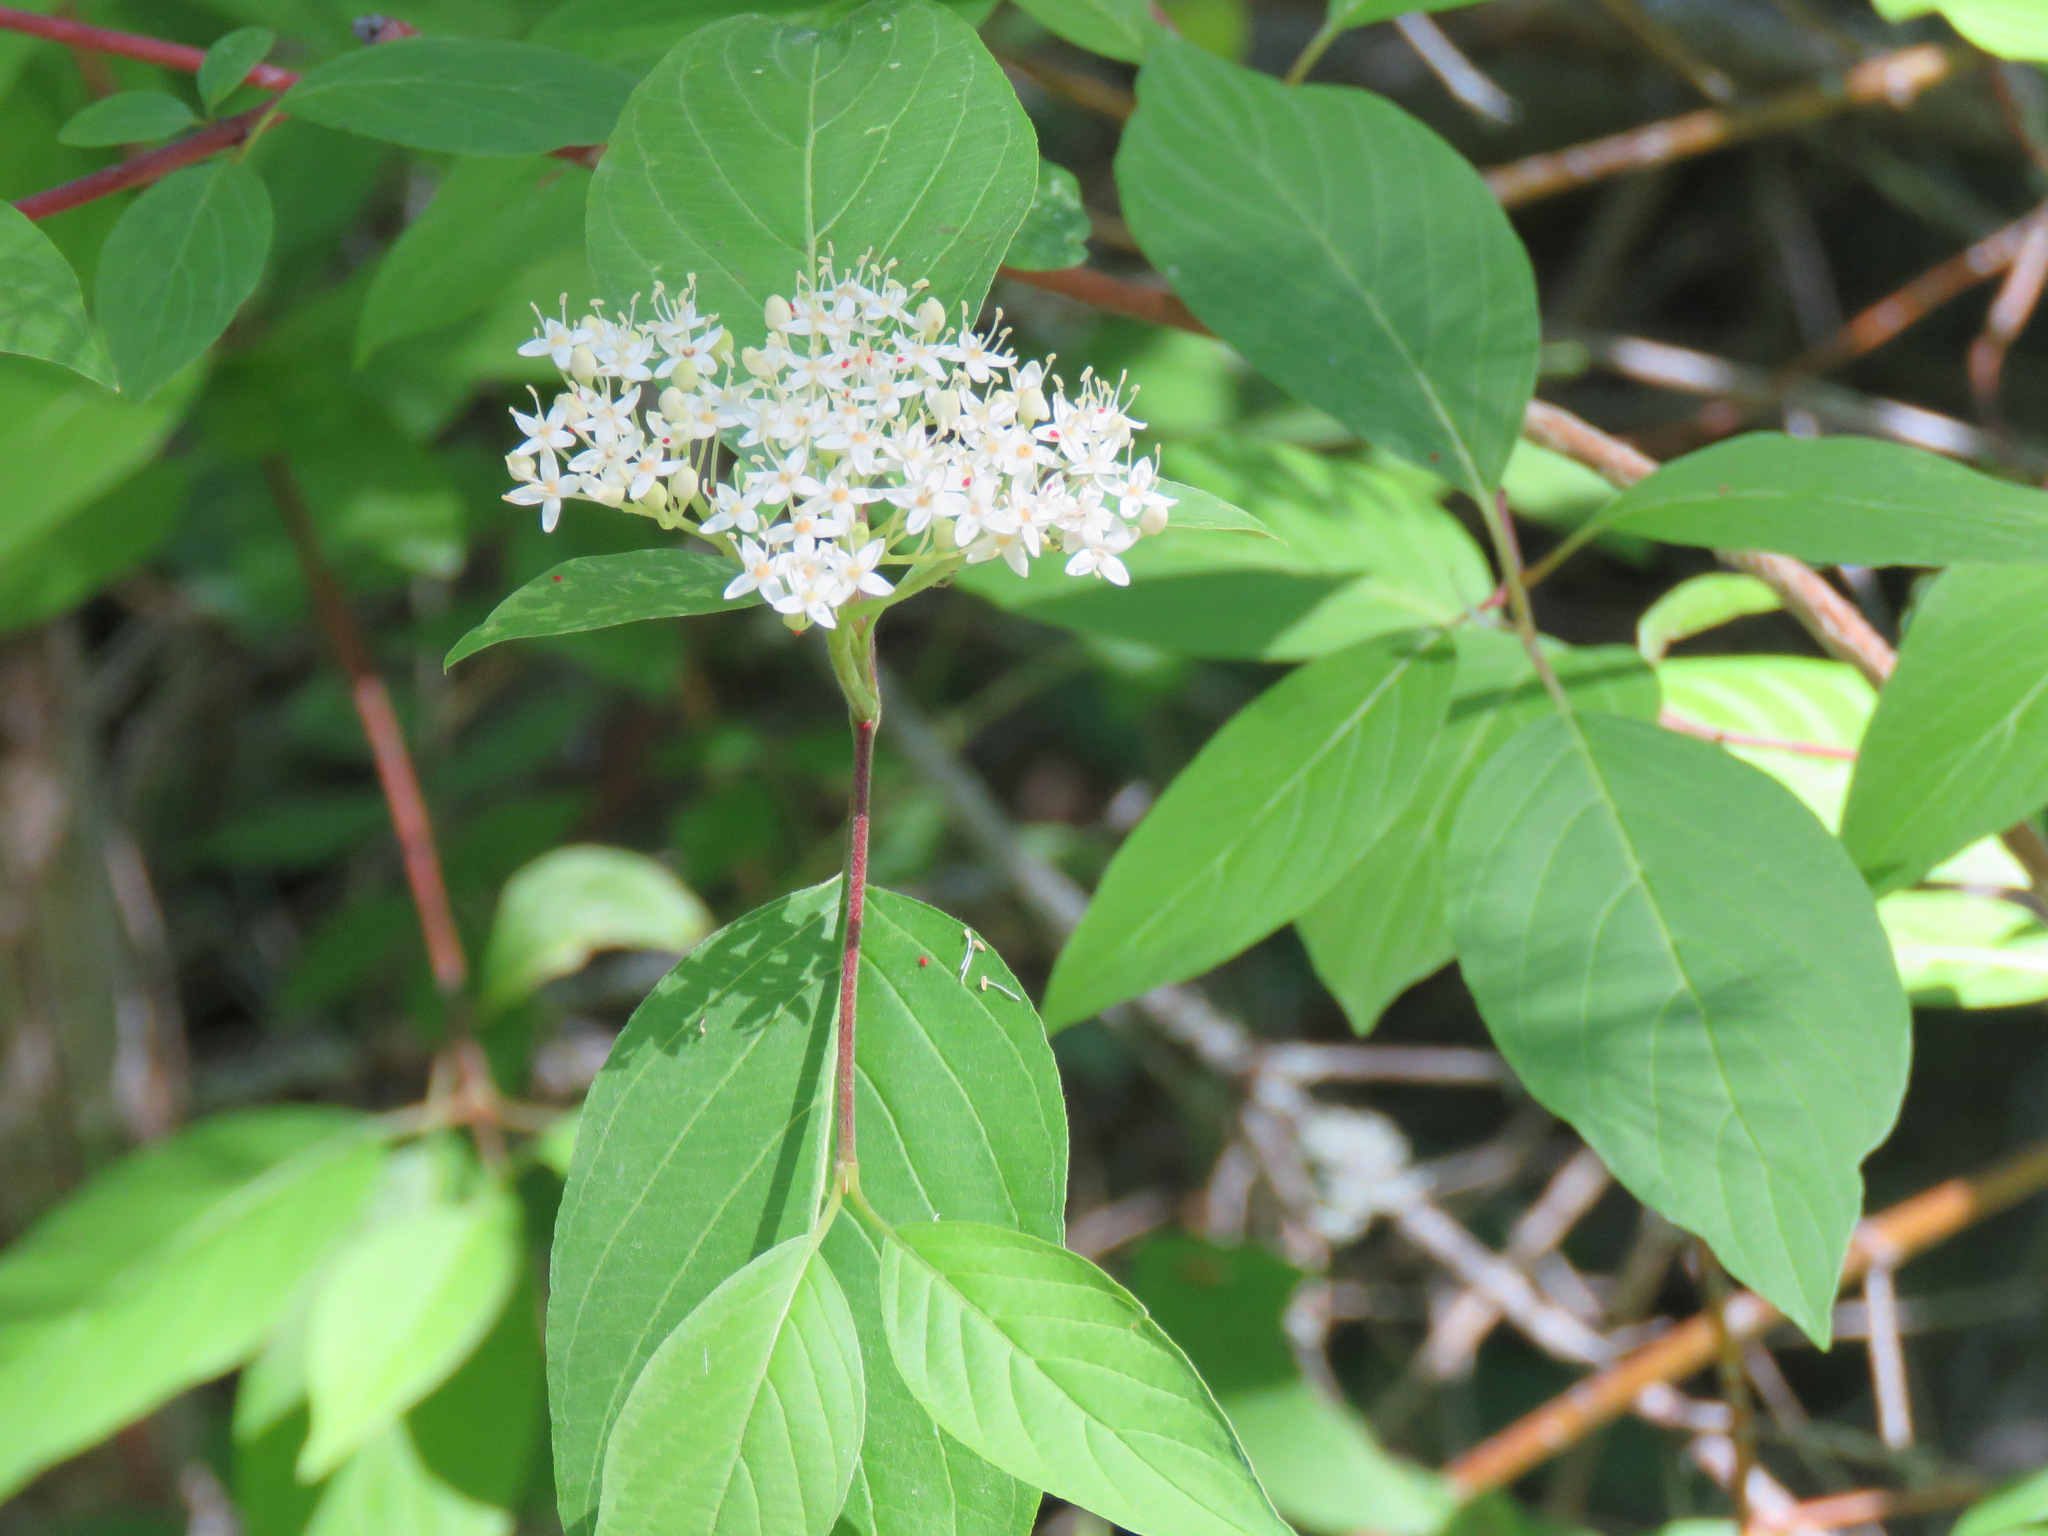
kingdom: Plantae
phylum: Tracheophyta
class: Magnoliopsida
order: Cornales
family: Cornaceae
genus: Cornus
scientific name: Cornus sericea
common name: Red-osier dogwood
